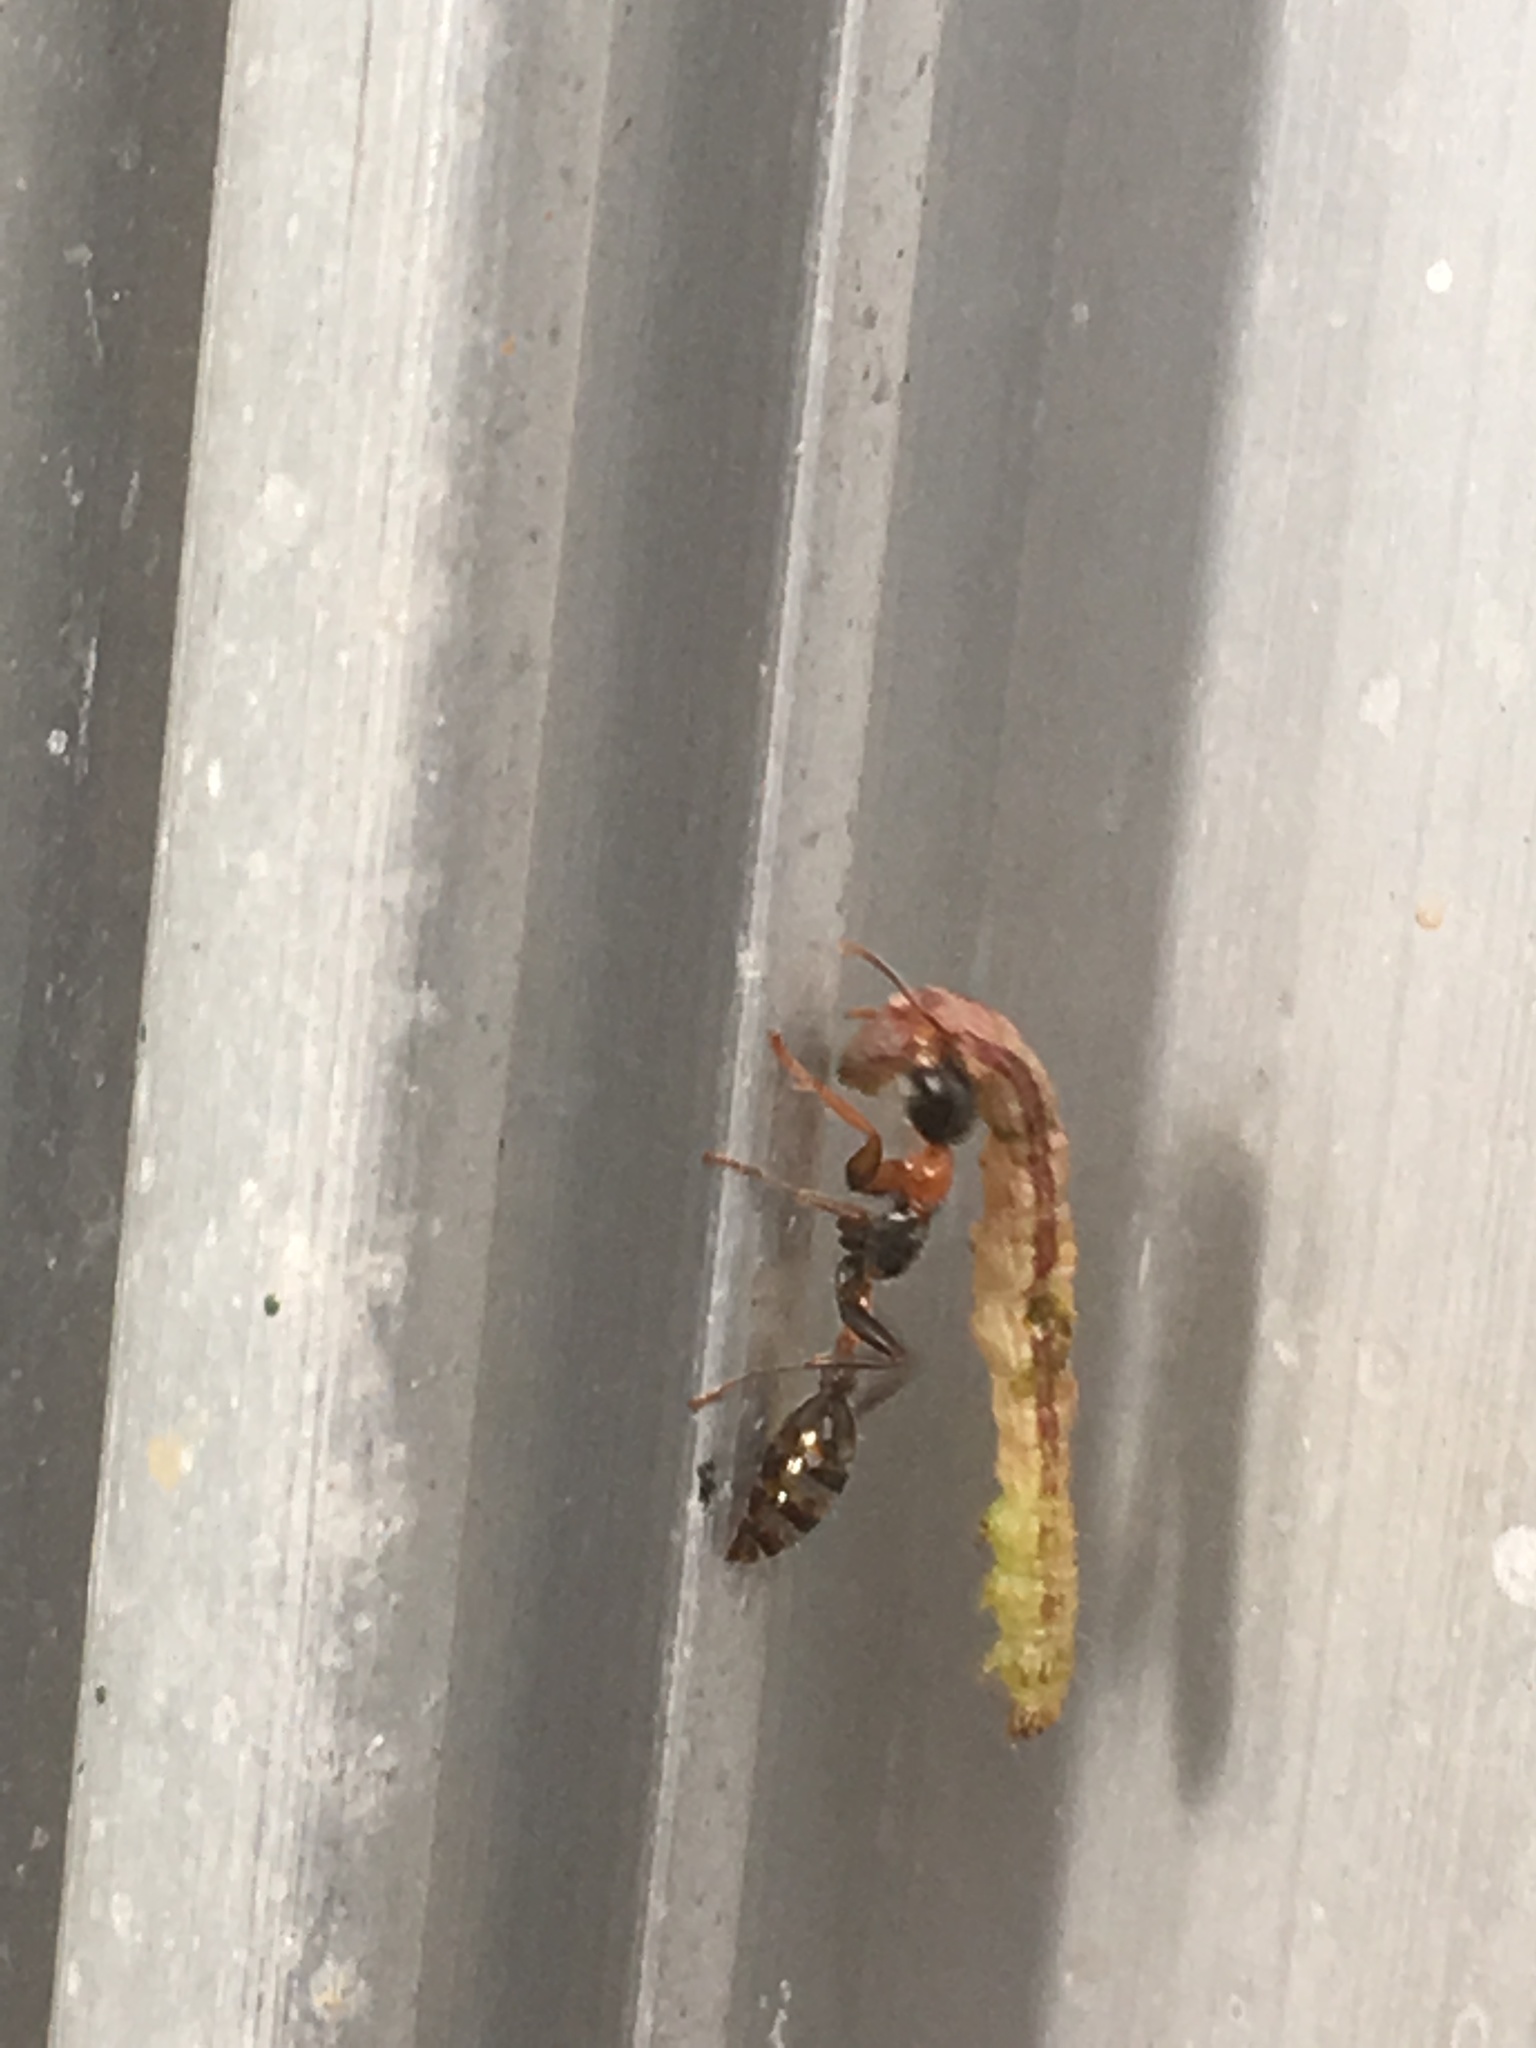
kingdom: Animalia
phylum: Arthropoda
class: Insecta
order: Hymenoptera
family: Formicidae
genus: Pseudomyrmex
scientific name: Pseudomyrmex gracilis
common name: Graceful twig ant
